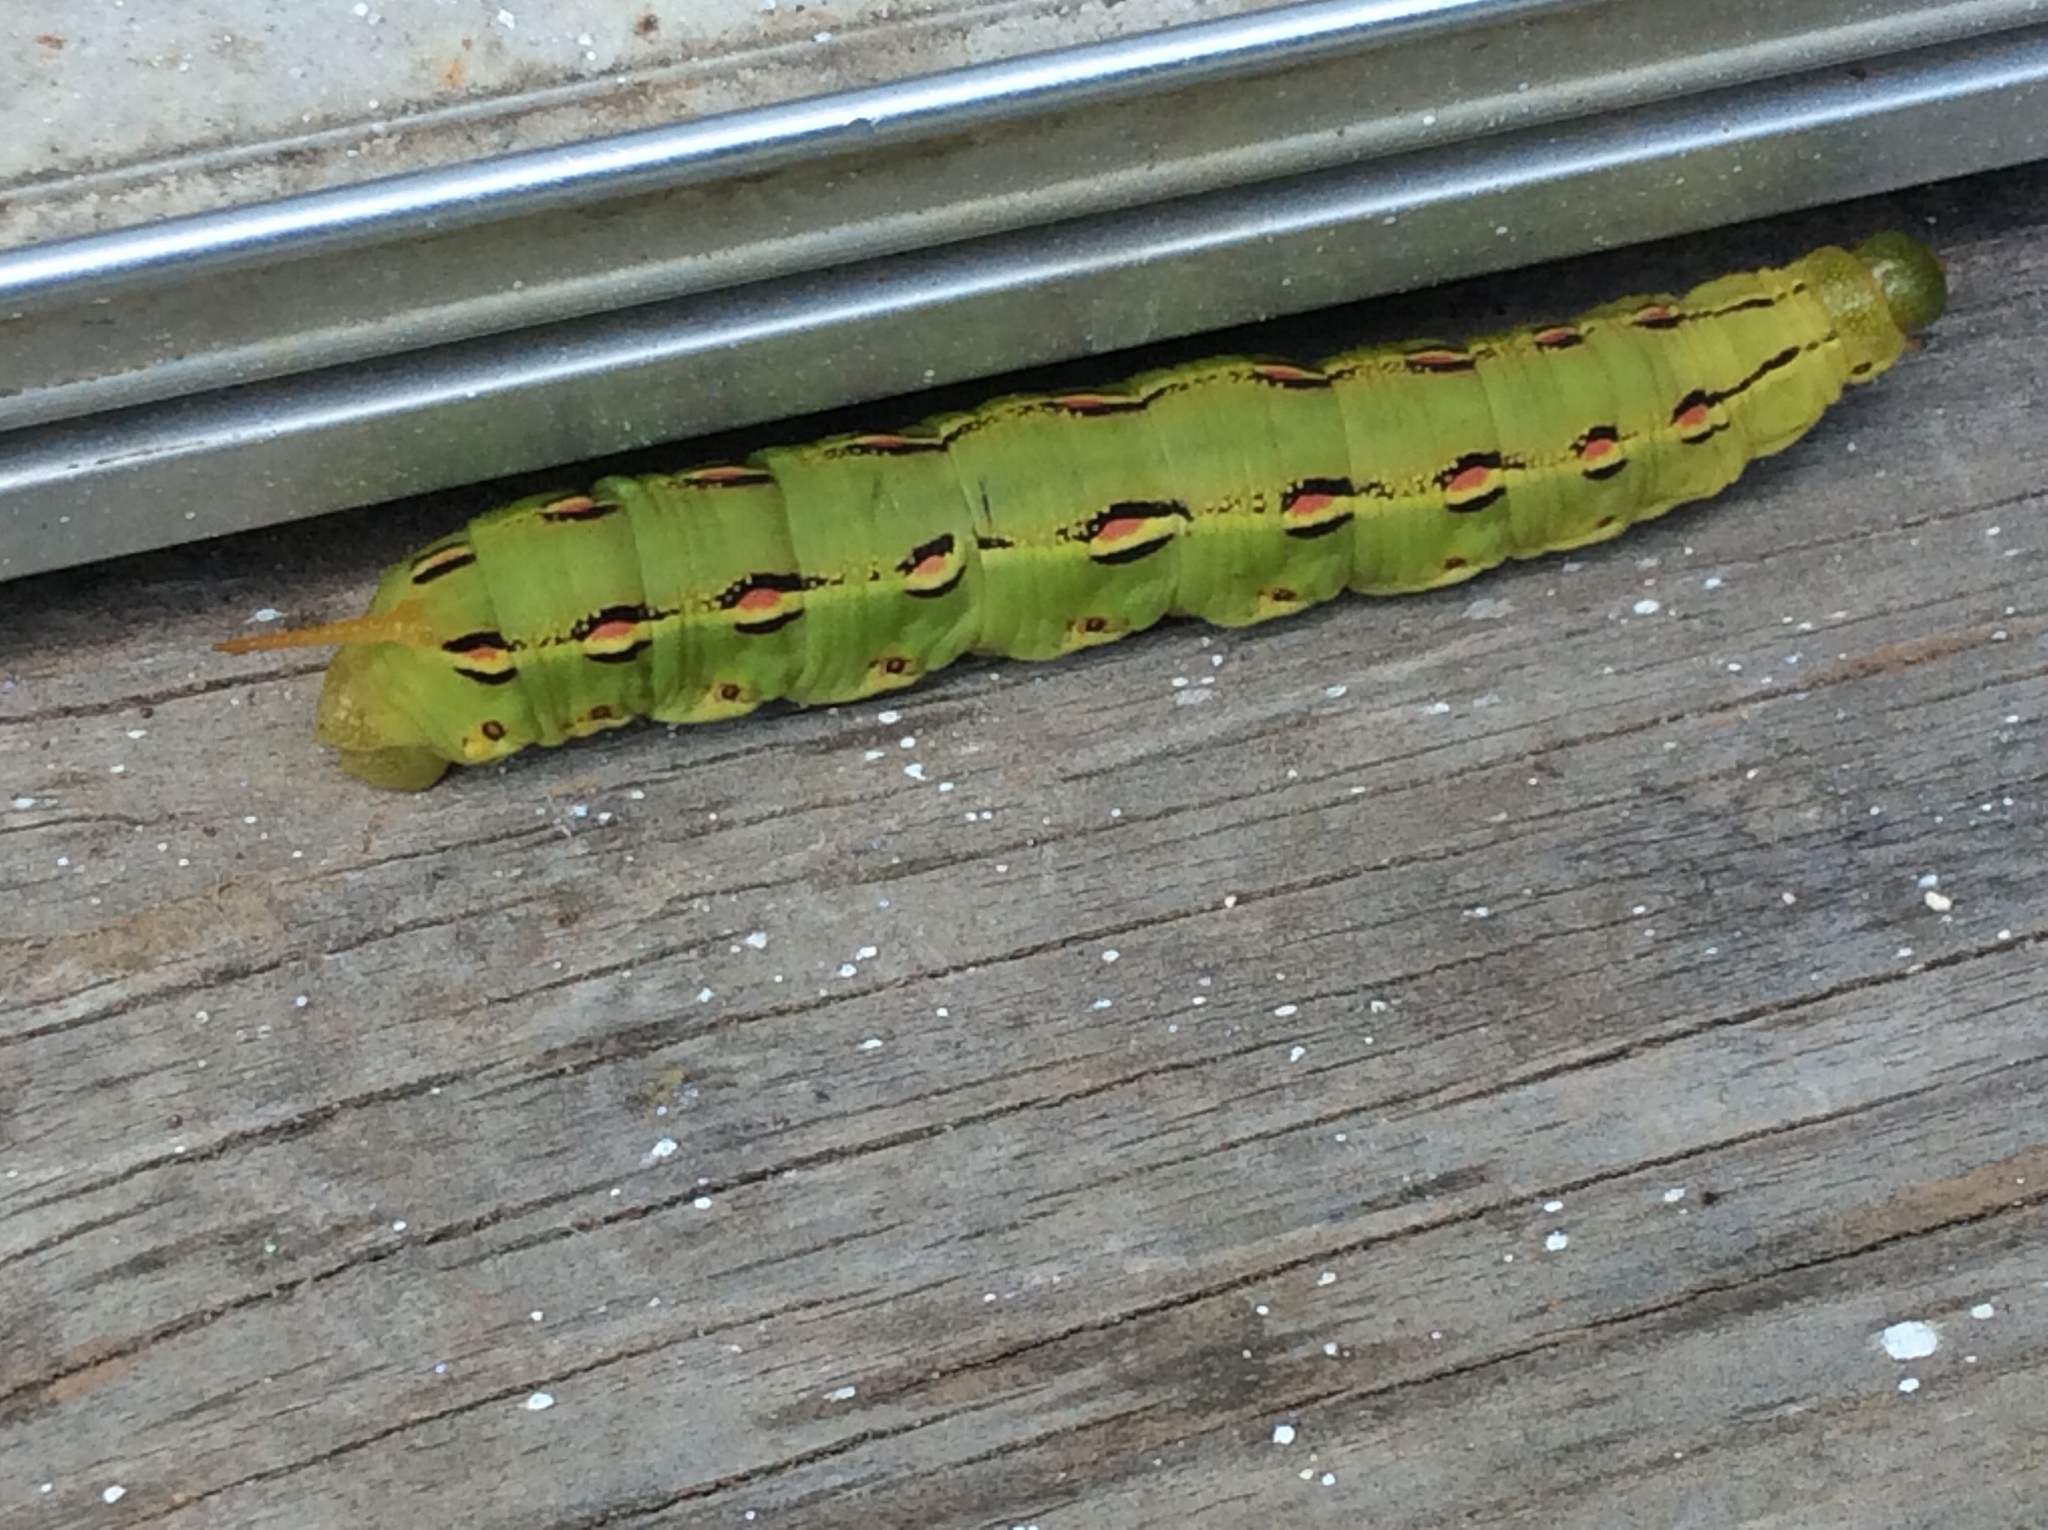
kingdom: Animalia
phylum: Arthropoda
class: Insecta
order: Lepidoptera
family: Sphingidae
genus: Hyles
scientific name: Hyles lineata
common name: White-lined sphinx
